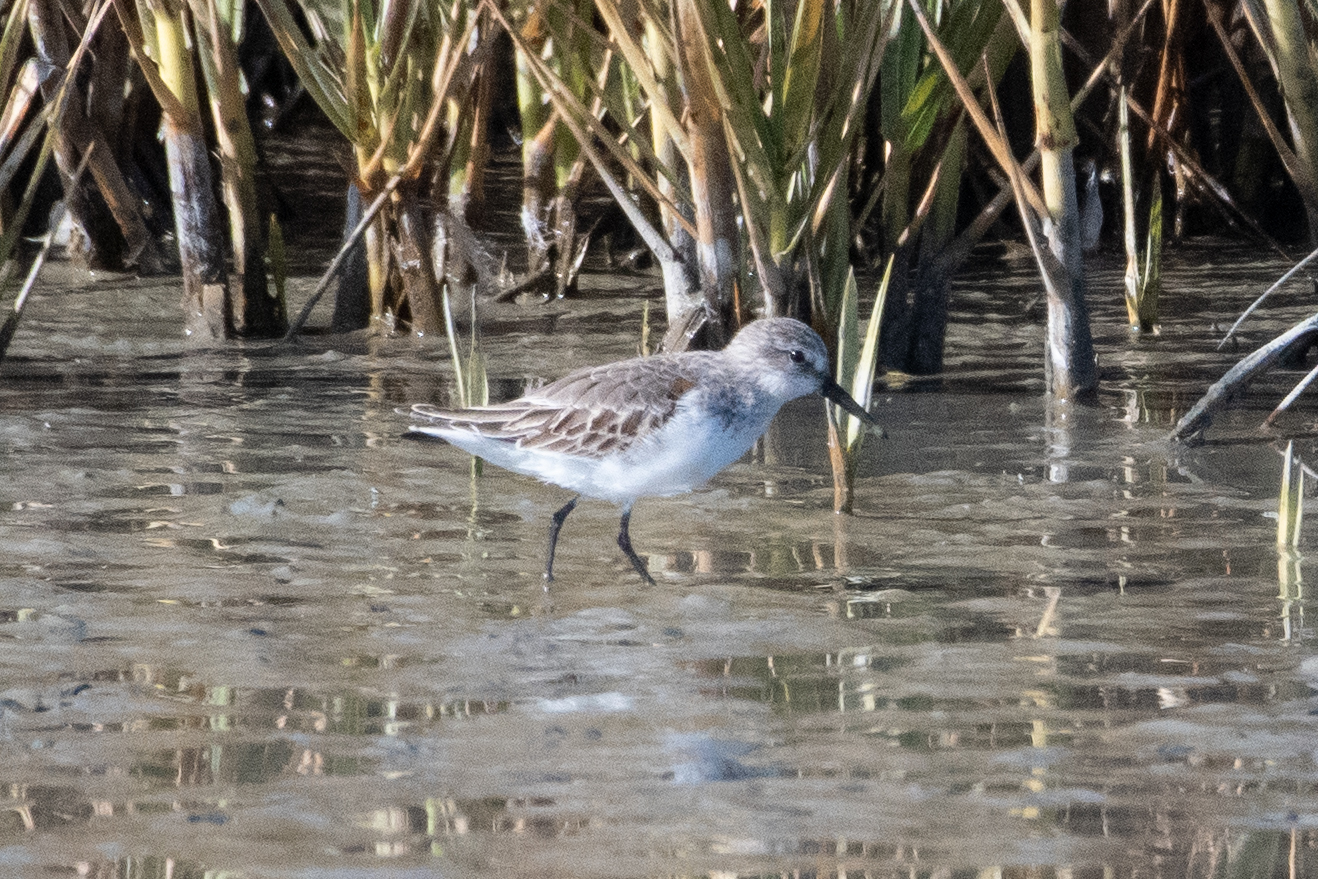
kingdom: Animalia
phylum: Chordata
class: Aves
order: Charadriiformes
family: Scolopacidae
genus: Calidris
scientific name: Calidris mauri
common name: Western sandpiper
